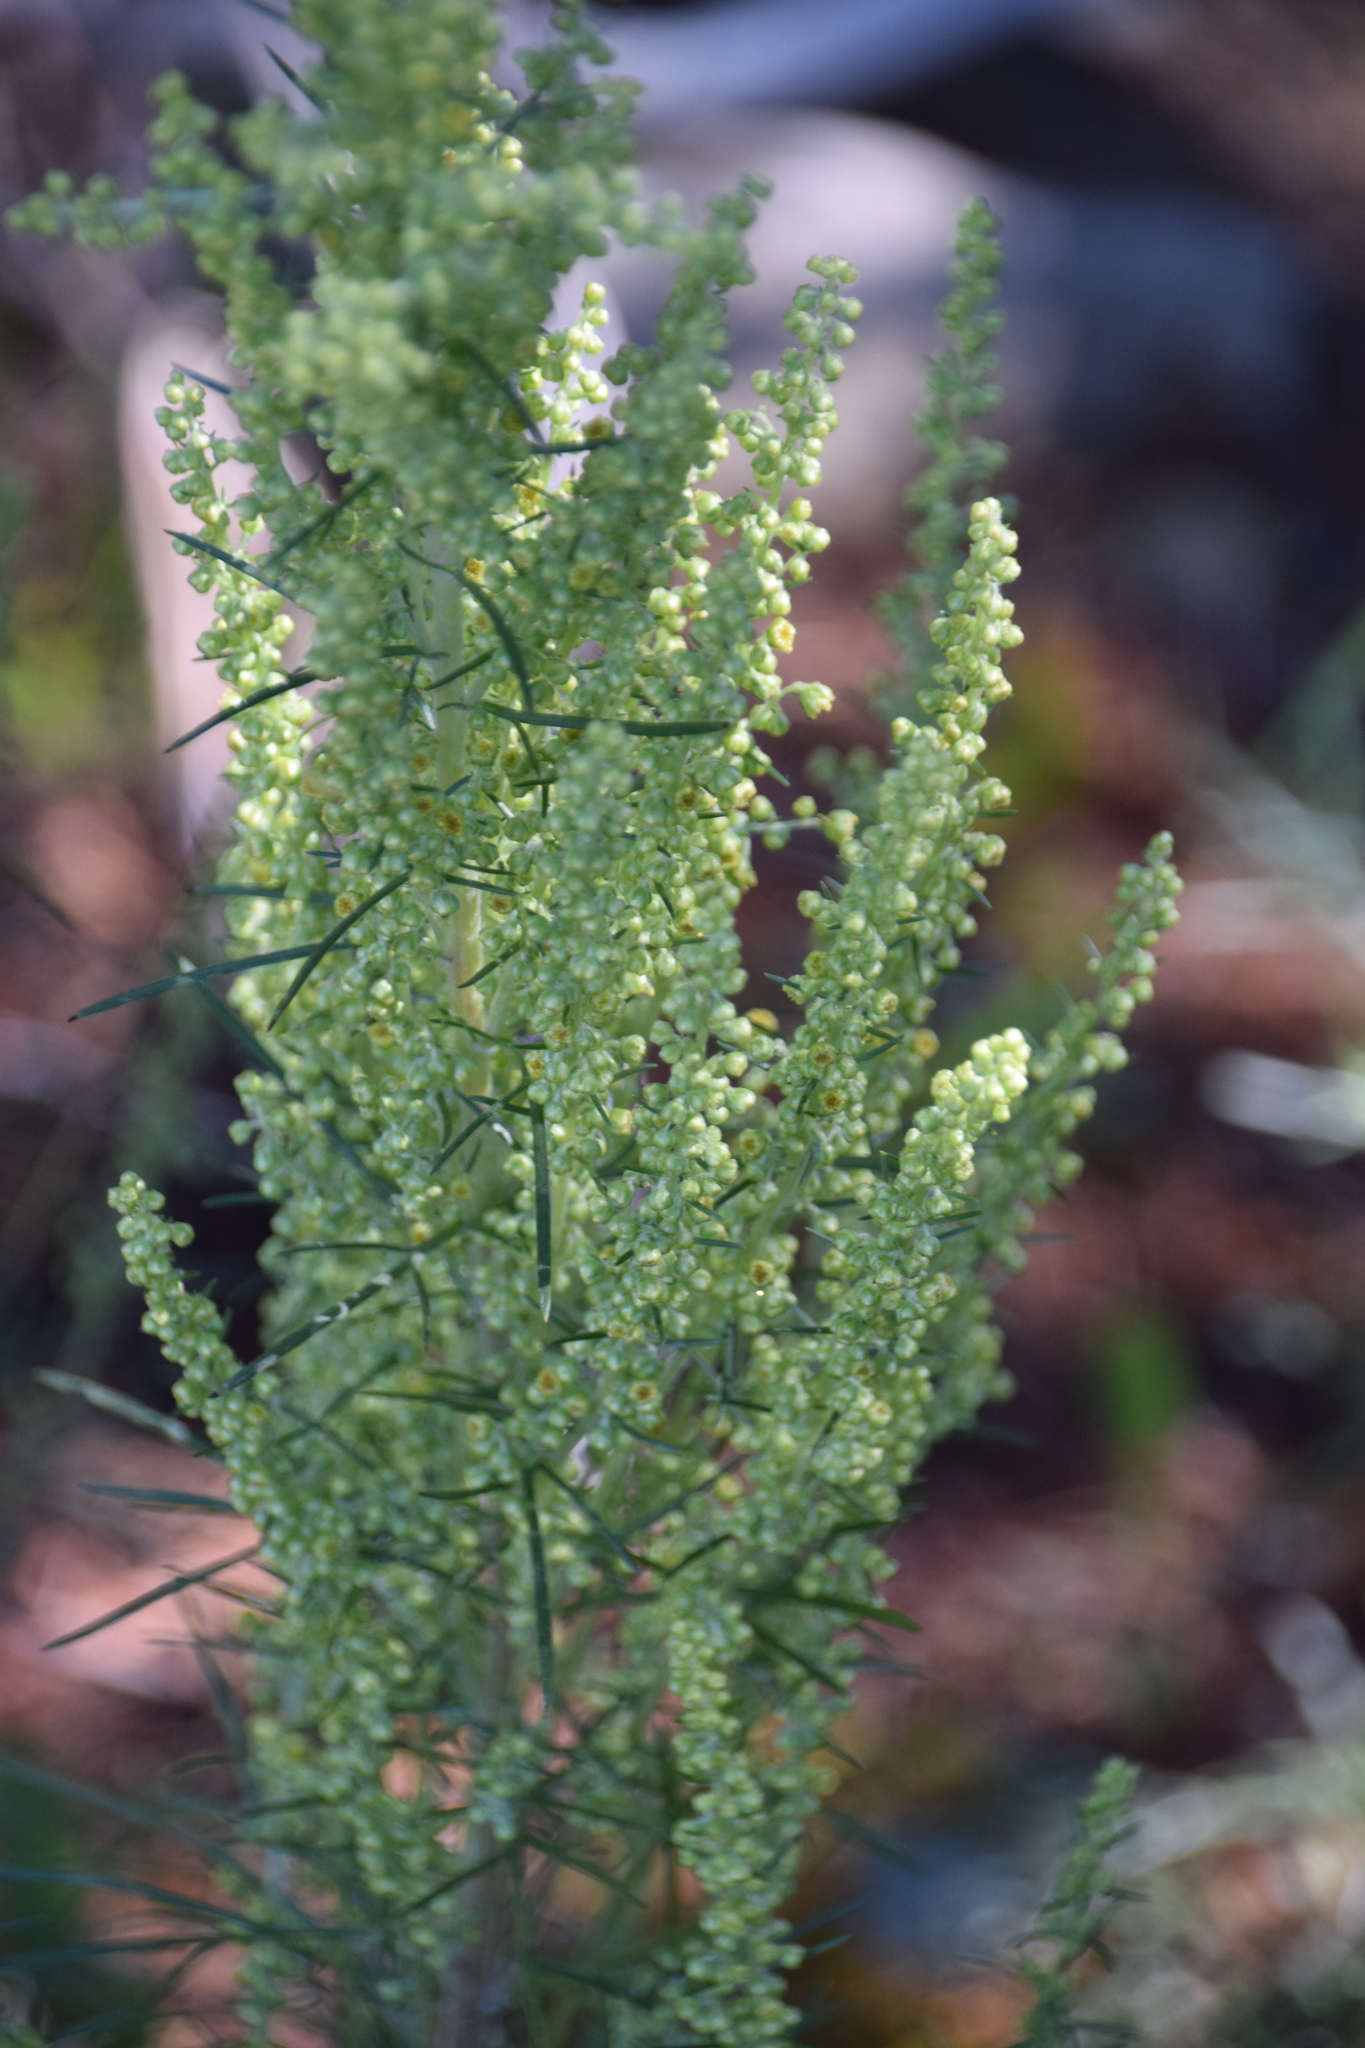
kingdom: Plantae
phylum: Tracheophyta
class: Magnoliopsida
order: Asterales
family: Asteraceae
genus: Artemisia
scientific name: Artemisia campestris
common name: Field wormwood
